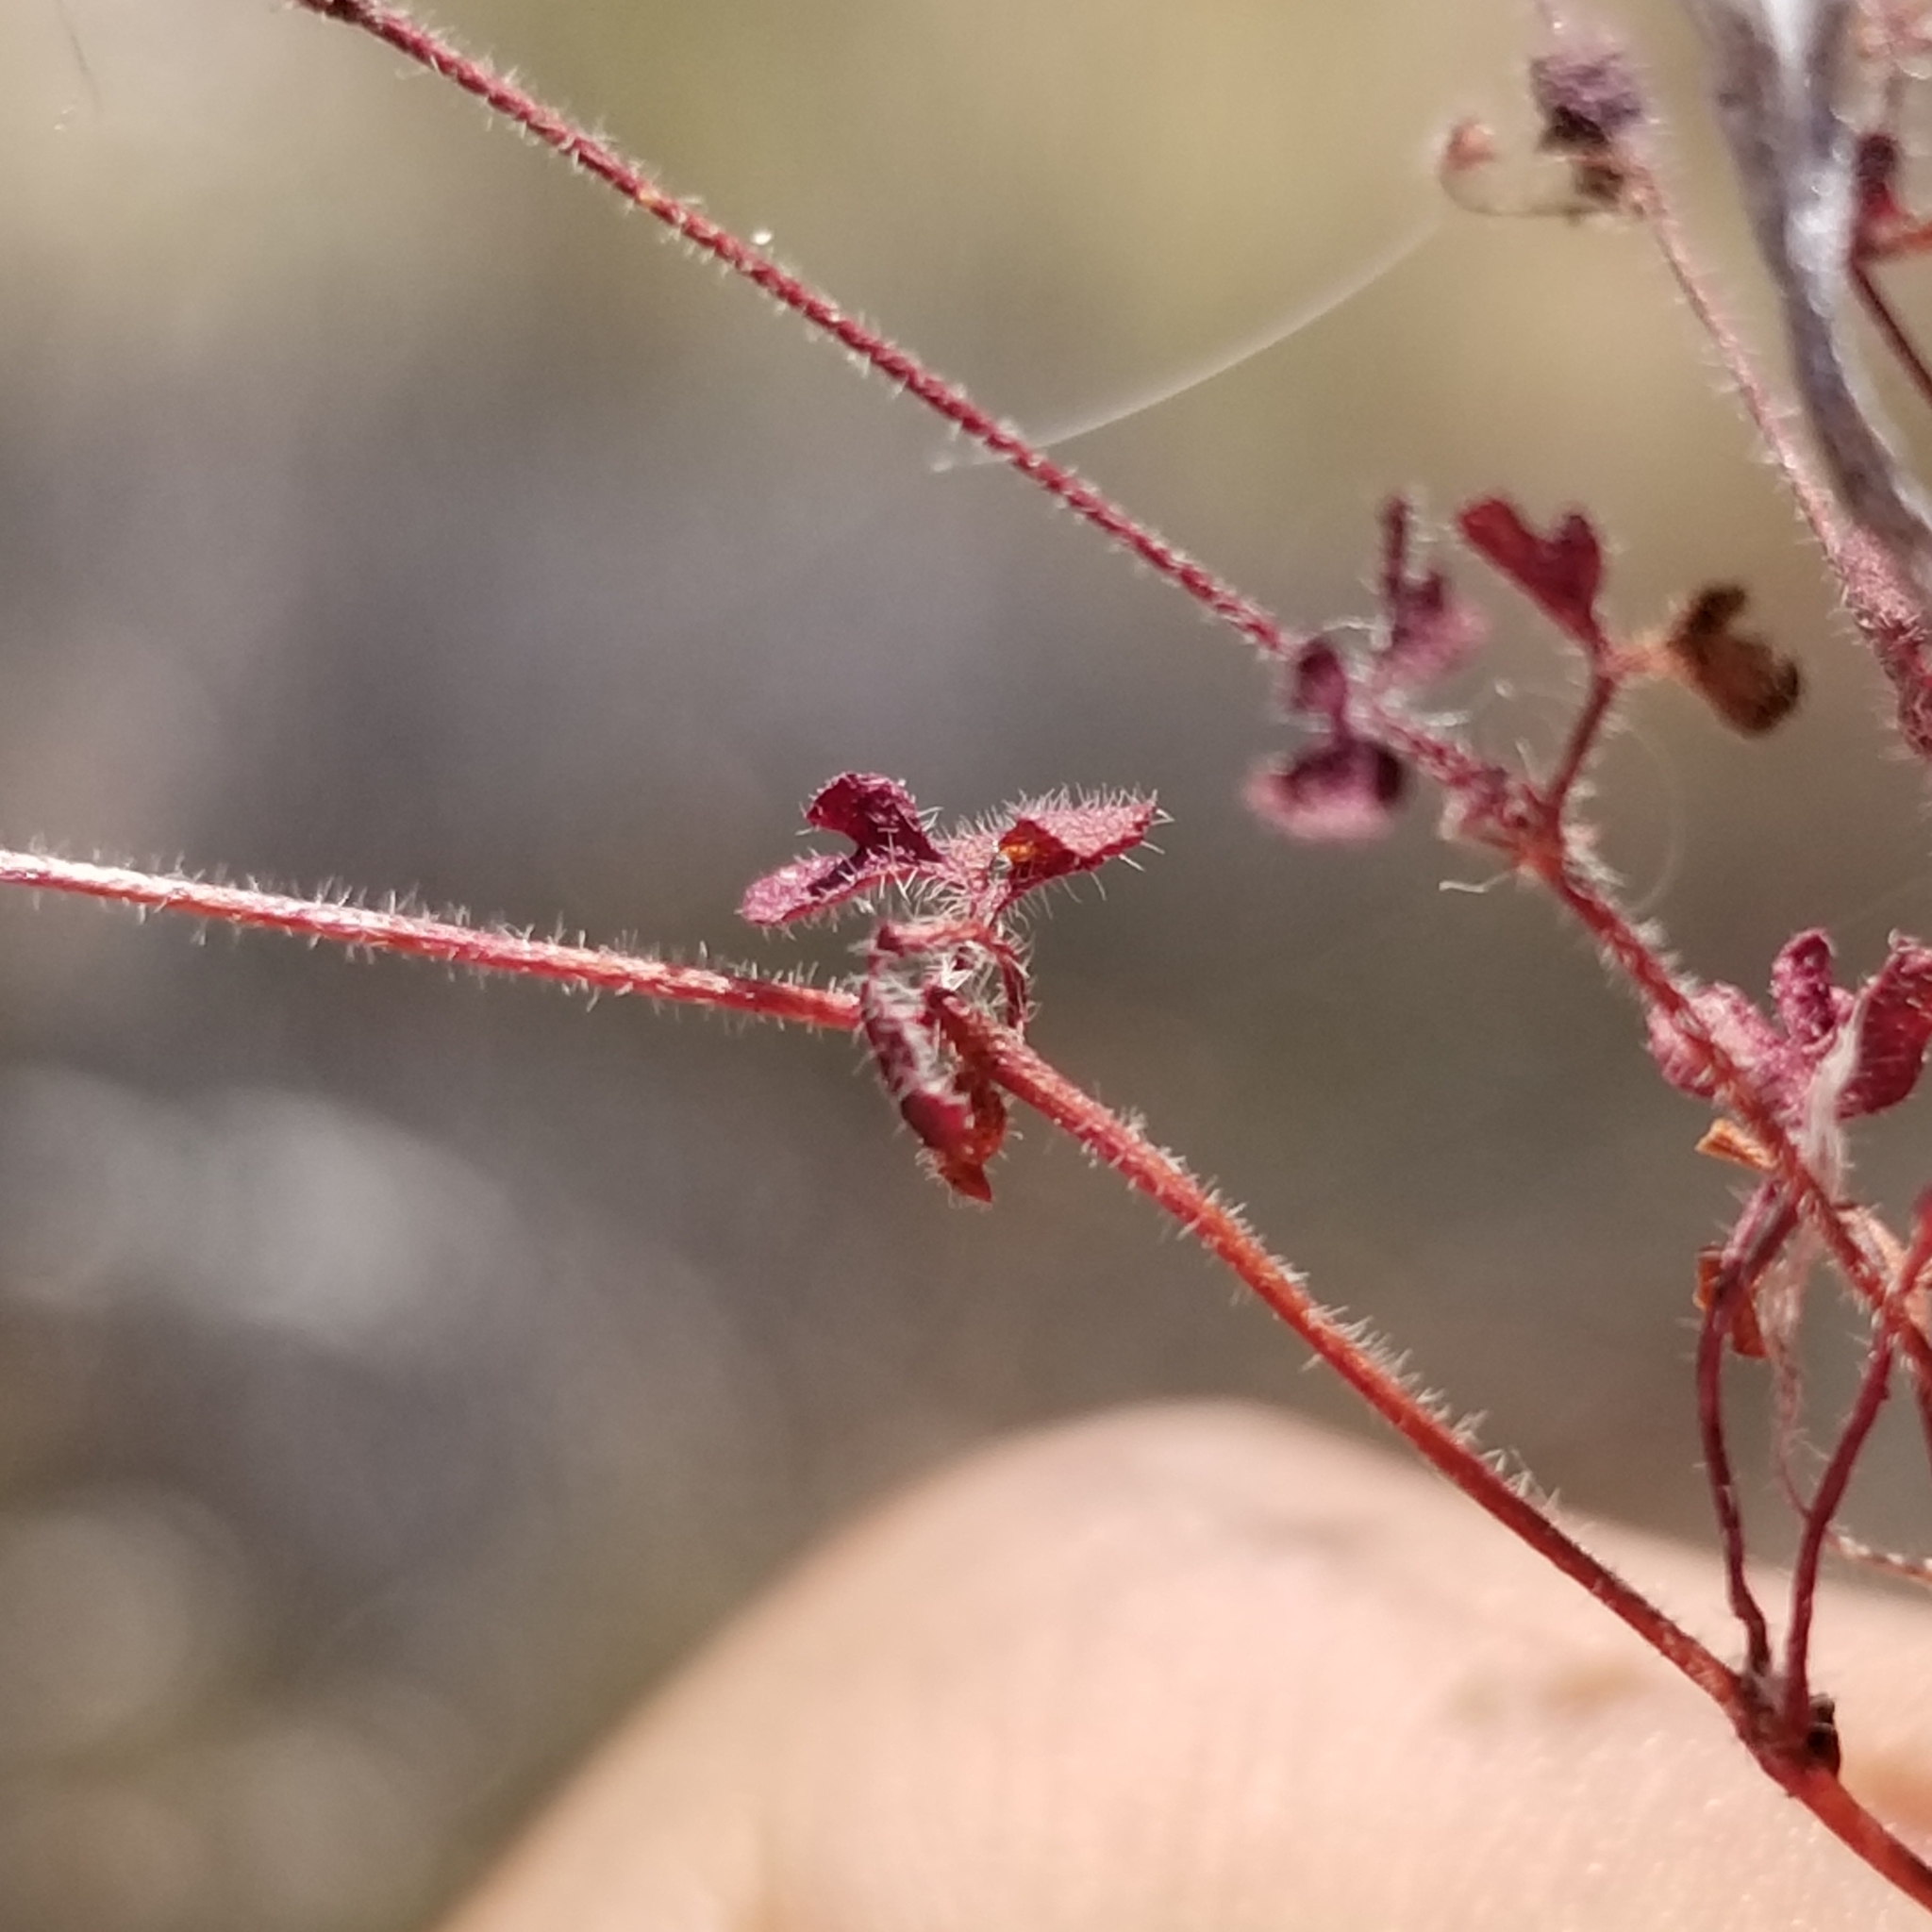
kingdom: Plantae
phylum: Tracheophyta
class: Magnoliopsida
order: Caryophyllales
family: Polygonaceae
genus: Pterostegia
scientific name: Pterostegia drymarioides
